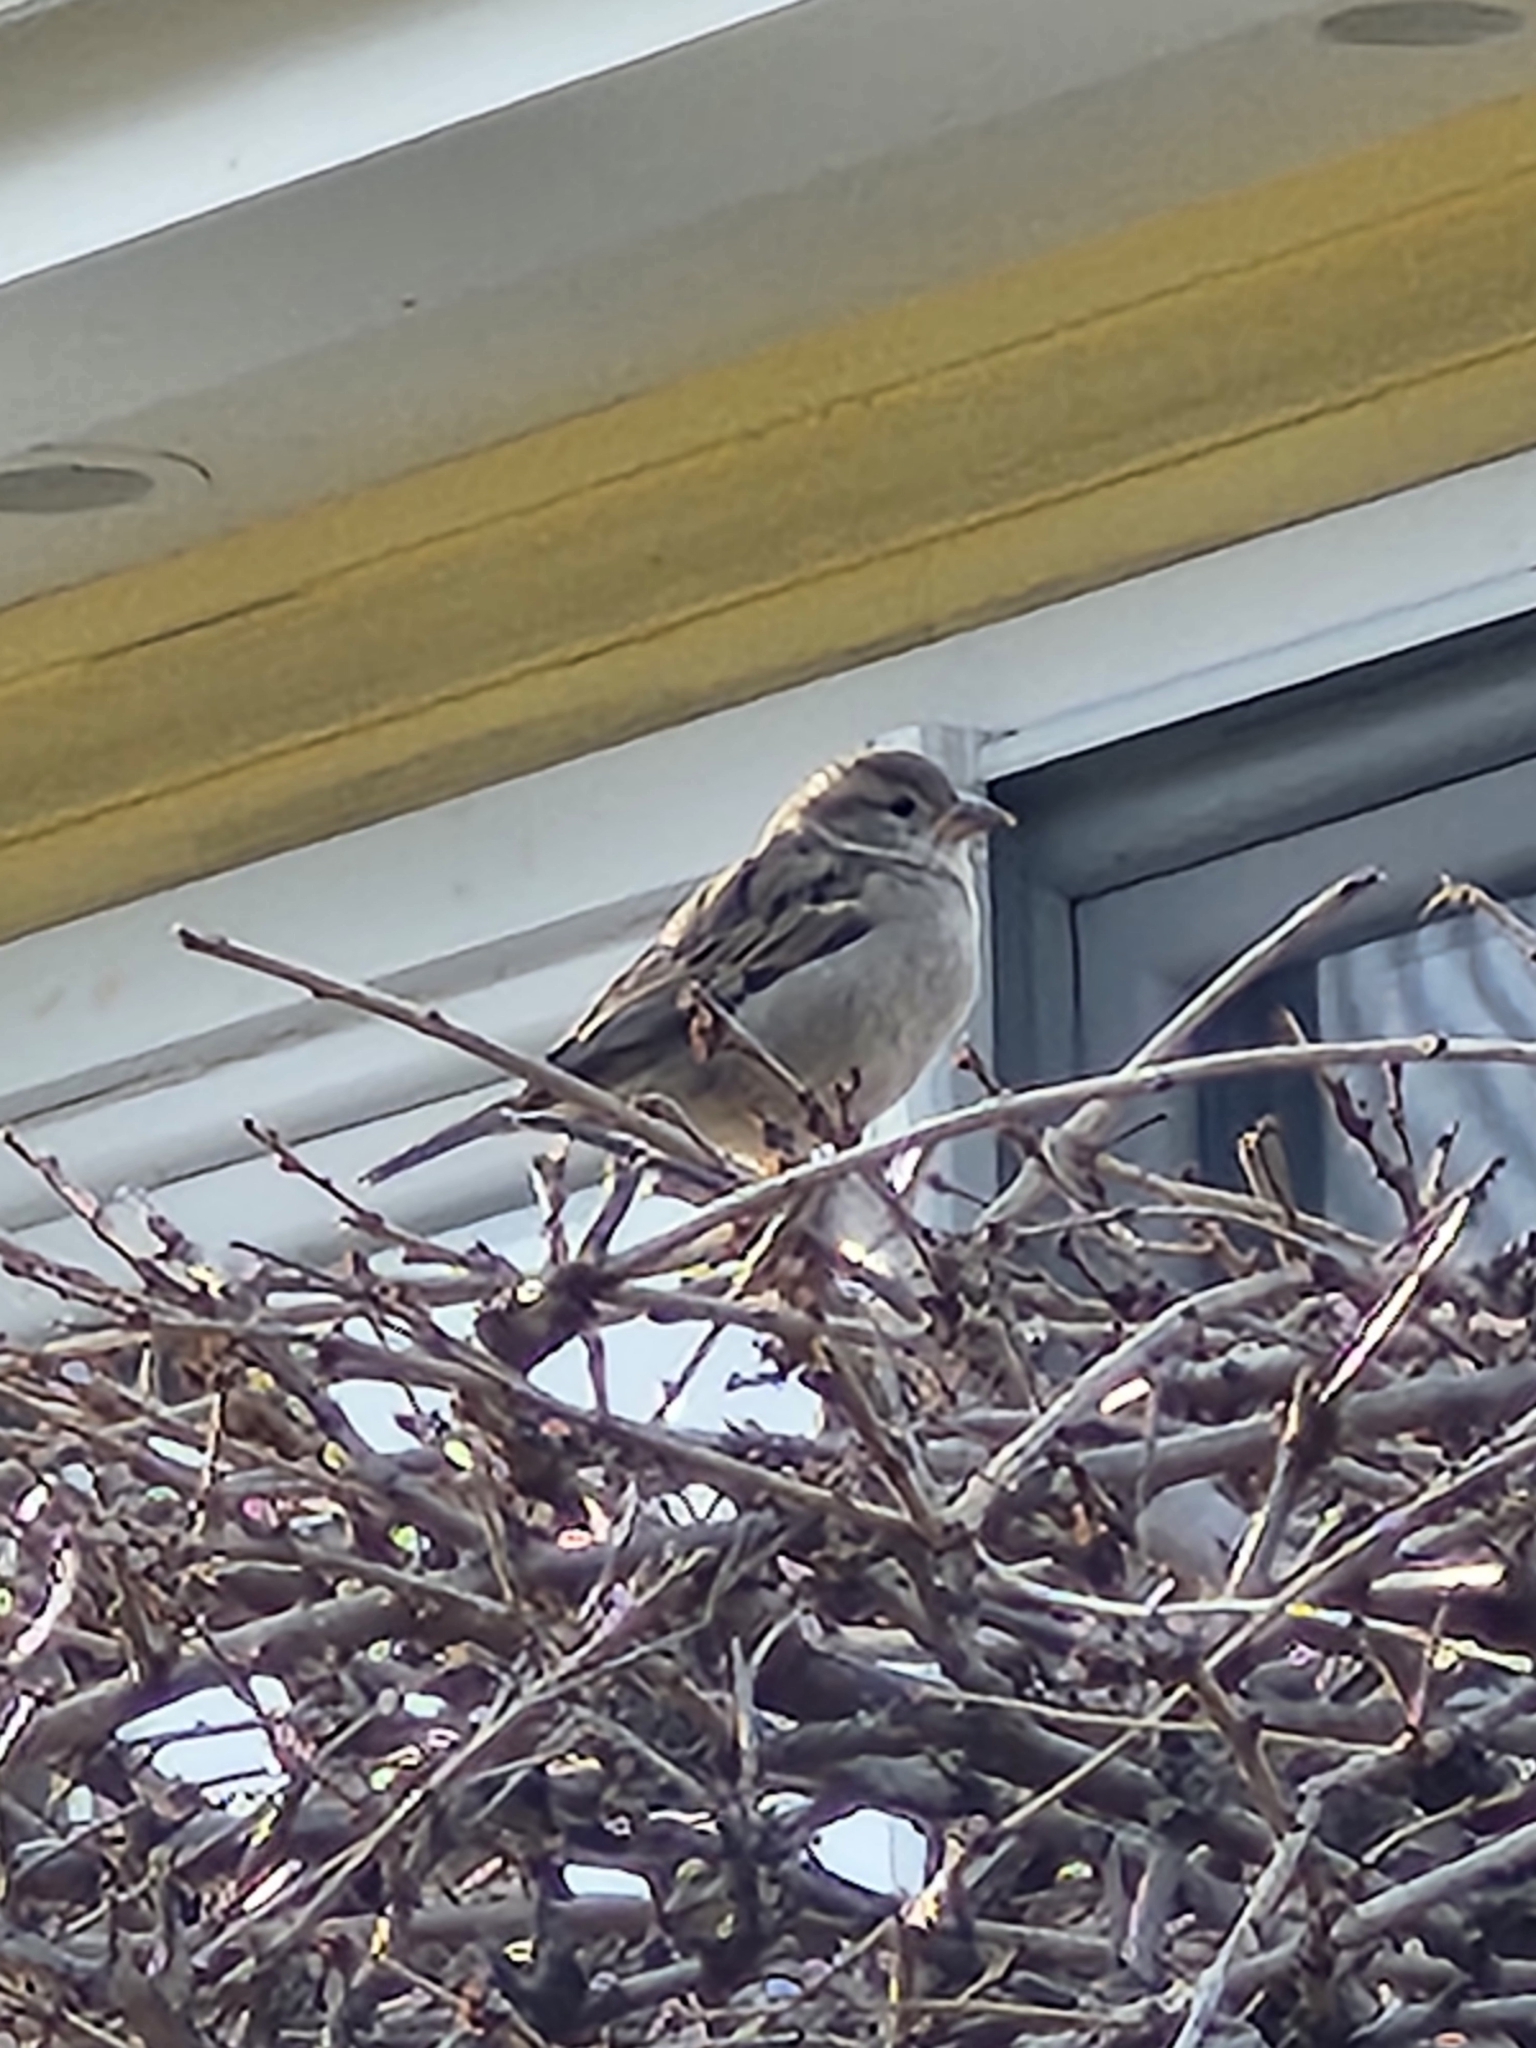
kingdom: Animalia
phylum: Chordata
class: Aves
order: Passeriformes
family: Passeridae
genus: Passer
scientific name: Passer domesticus
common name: House sparrow
